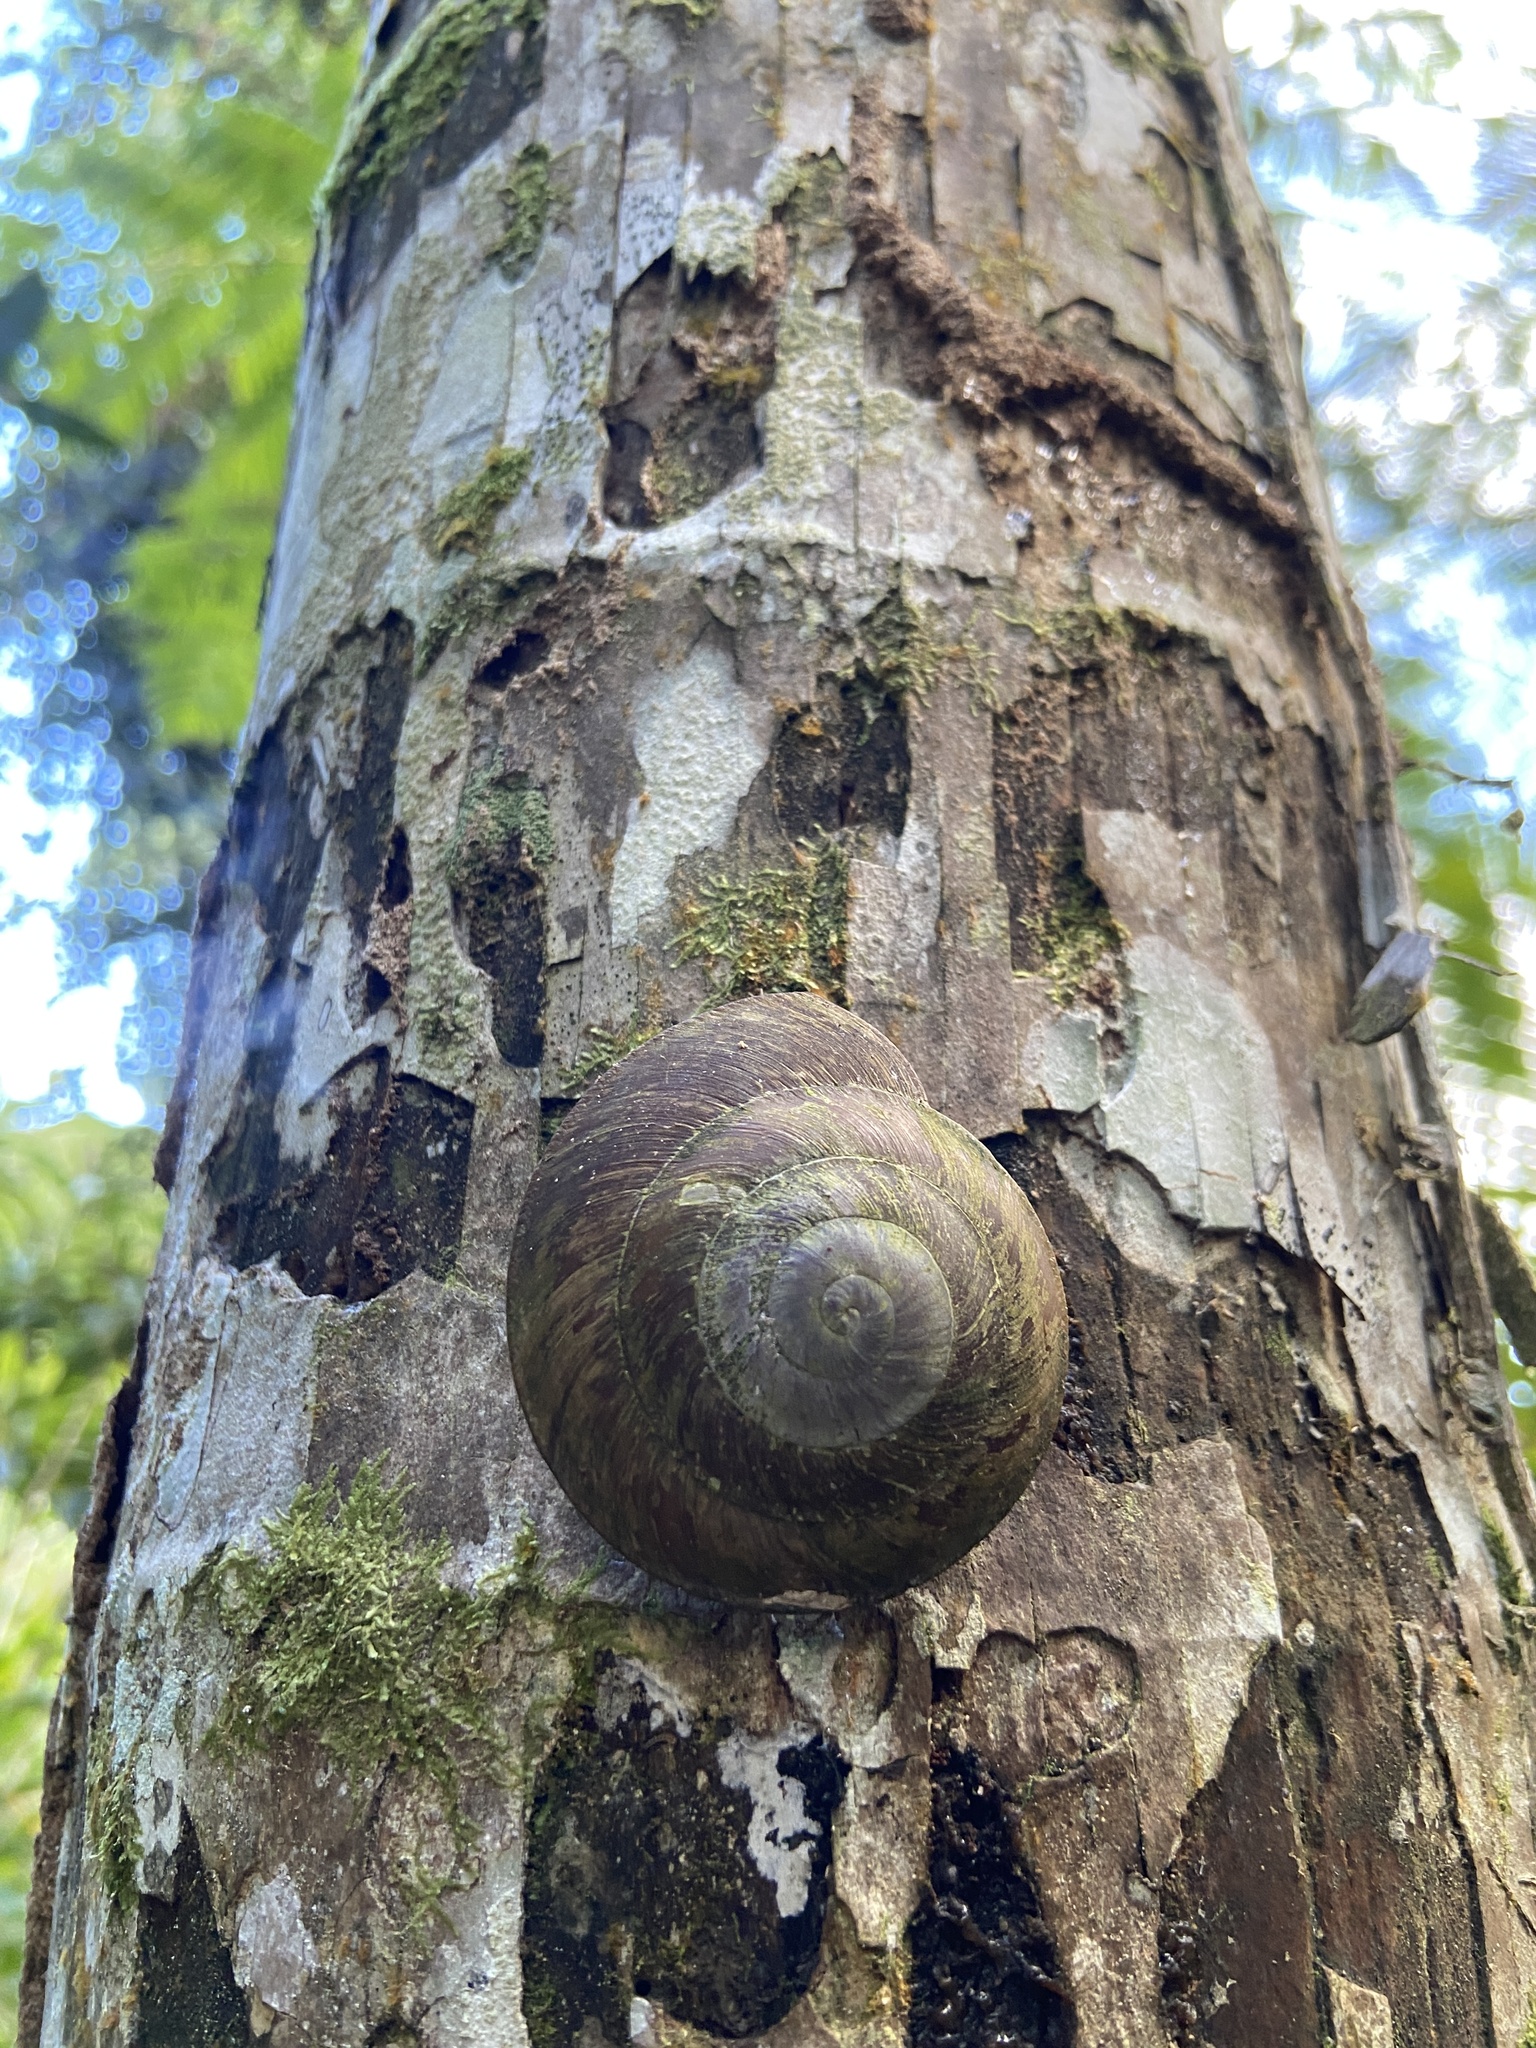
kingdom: Animalia
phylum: Mollusca
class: Gastropoda
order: Stylommatophora
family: Solaropsidae
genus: Caracolus
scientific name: Caracolus carocolla
